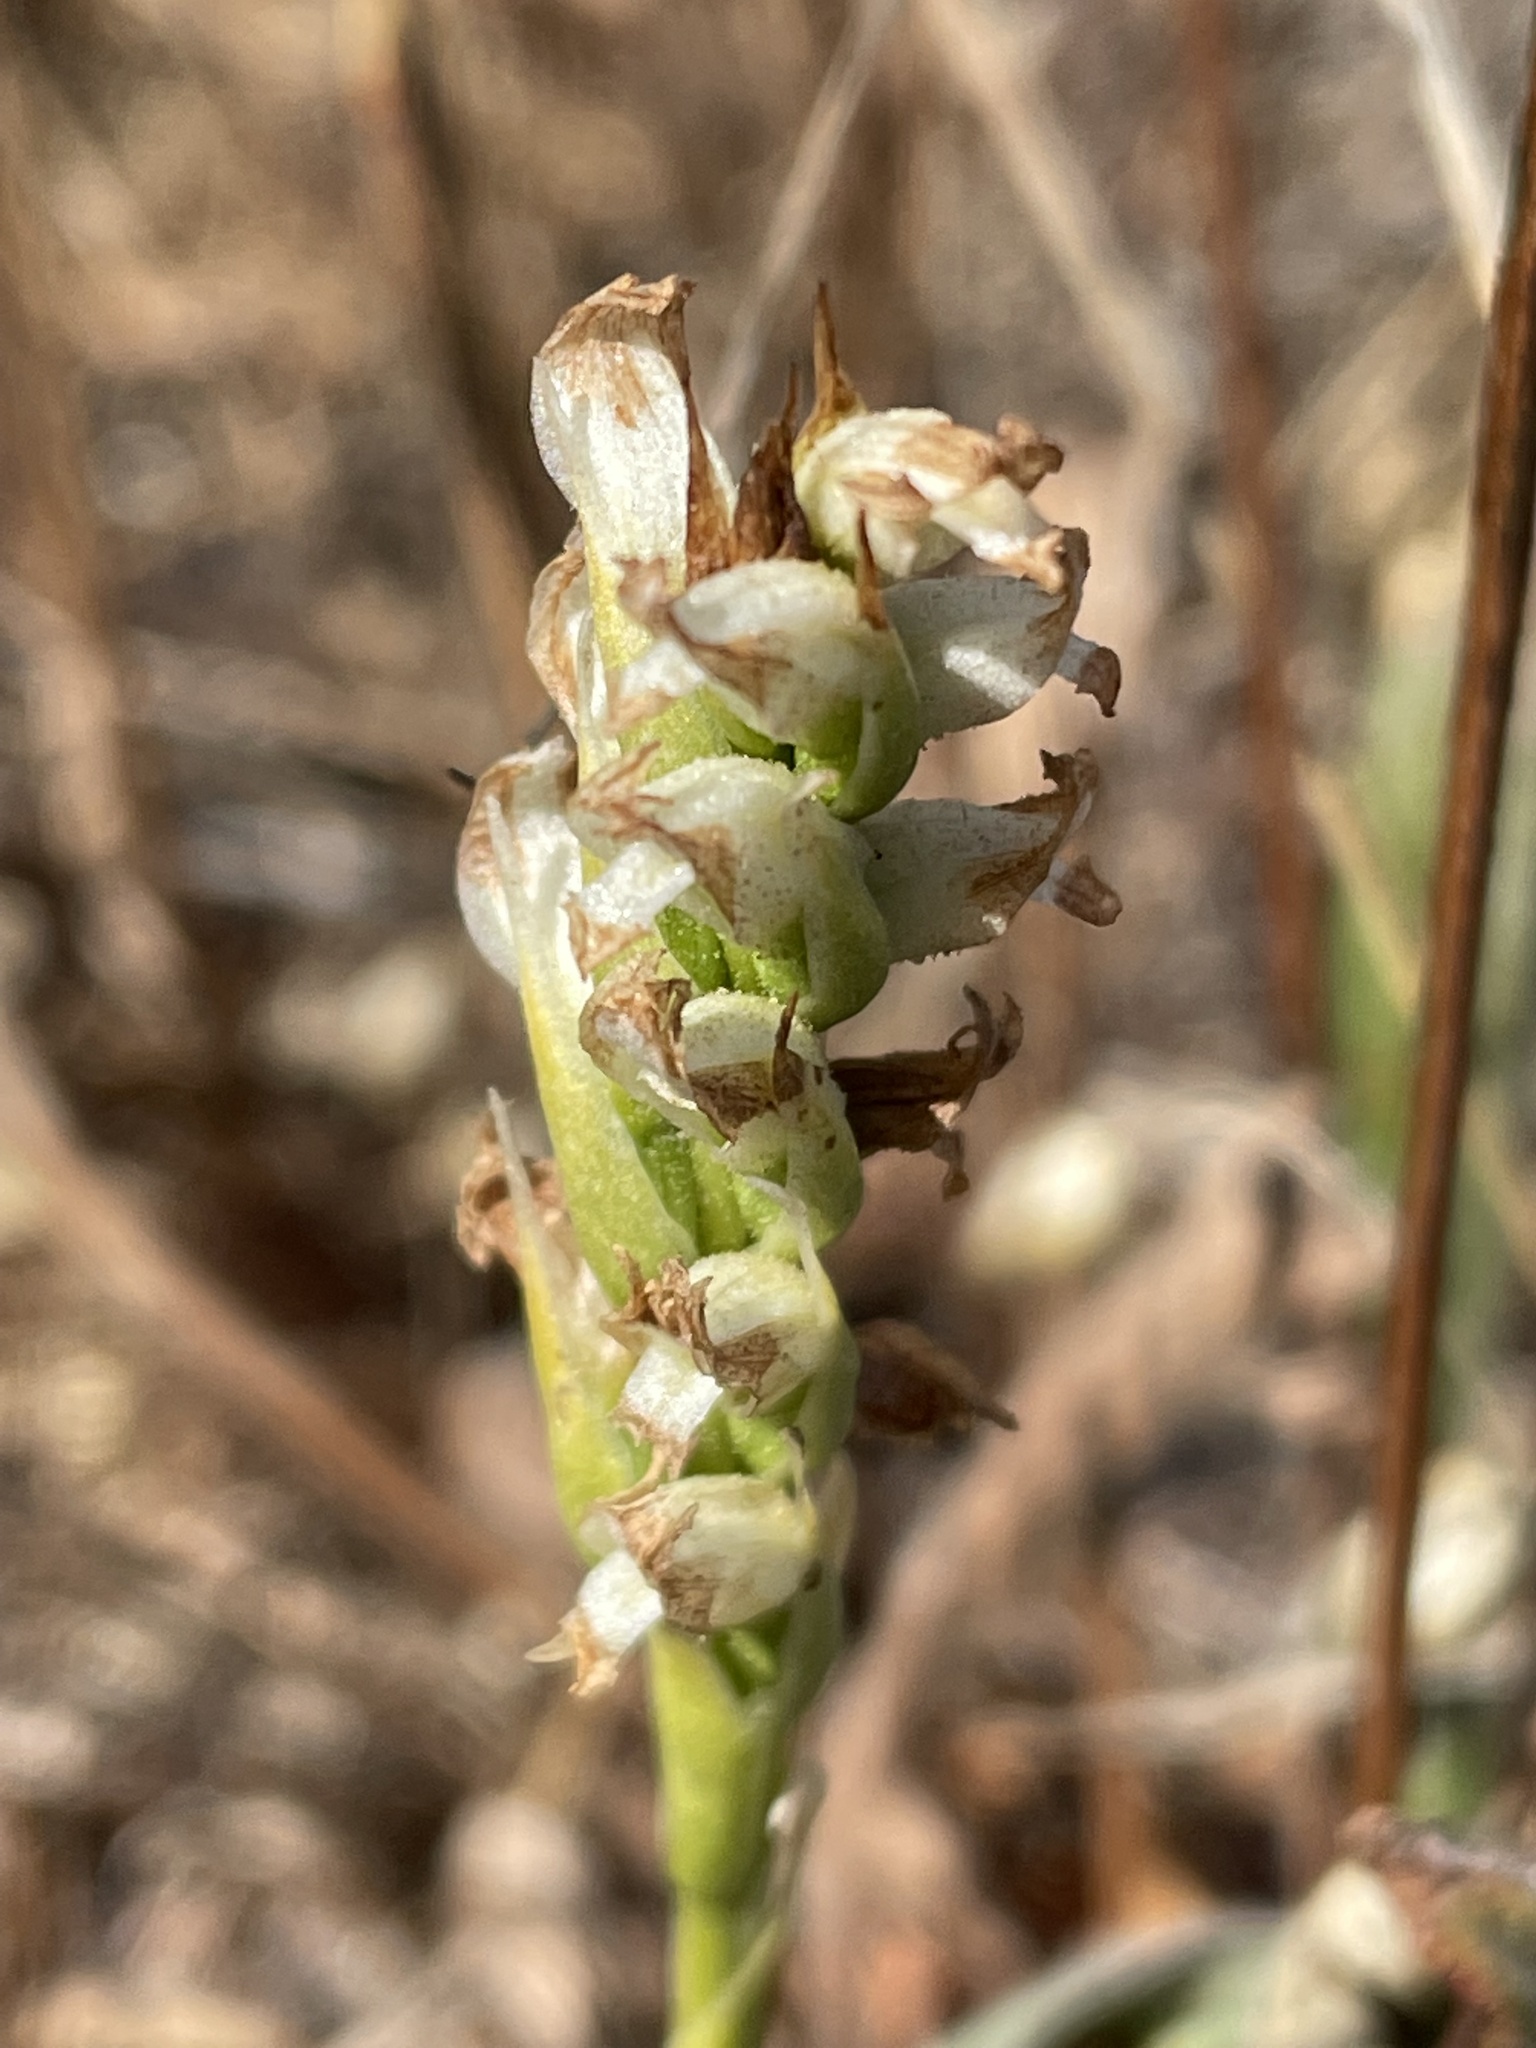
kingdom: Plantae
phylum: Tracheophyta
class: Liliopsida
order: Asparagales
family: Orchidaceae
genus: Spiranthes
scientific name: Spiranthes romanzoffiana
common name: Irish lady's-tresses
